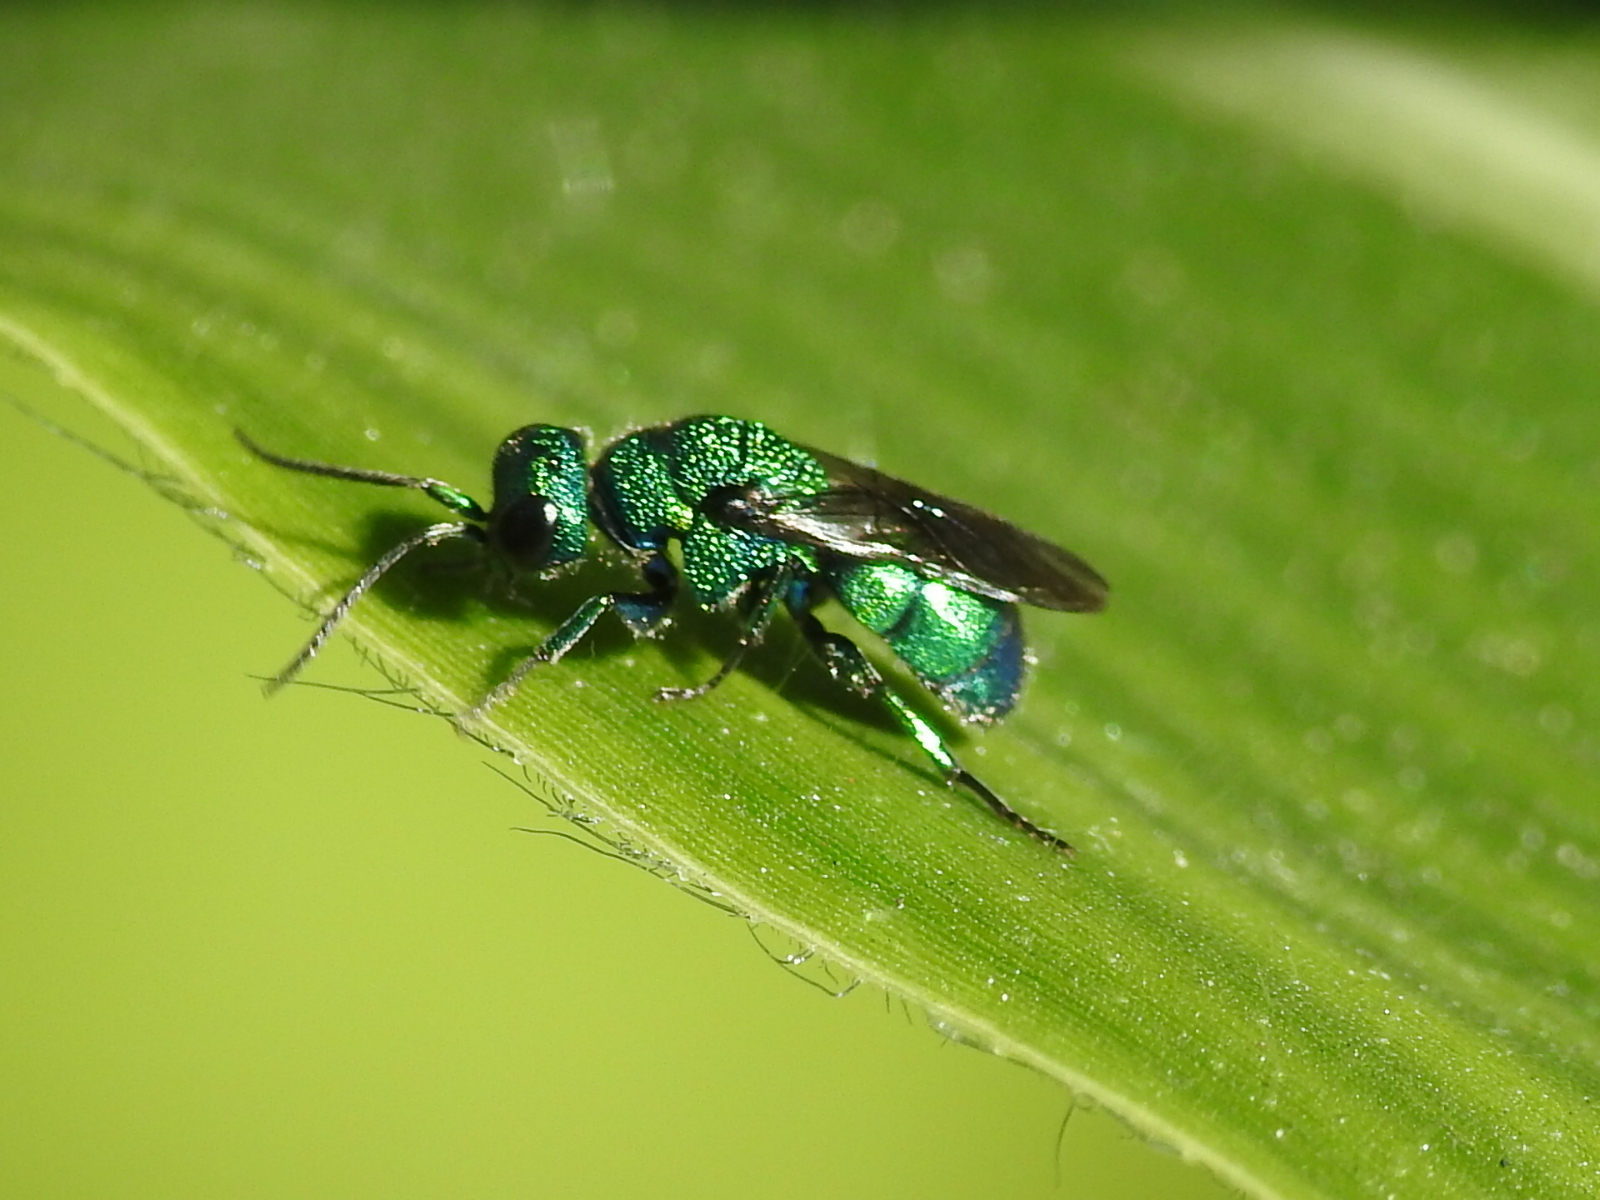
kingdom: Animalia
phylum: Arthropoda
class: Insecta
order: Hymenoptera
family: Chrysididae
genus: Holopyga
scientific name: Holopyga
